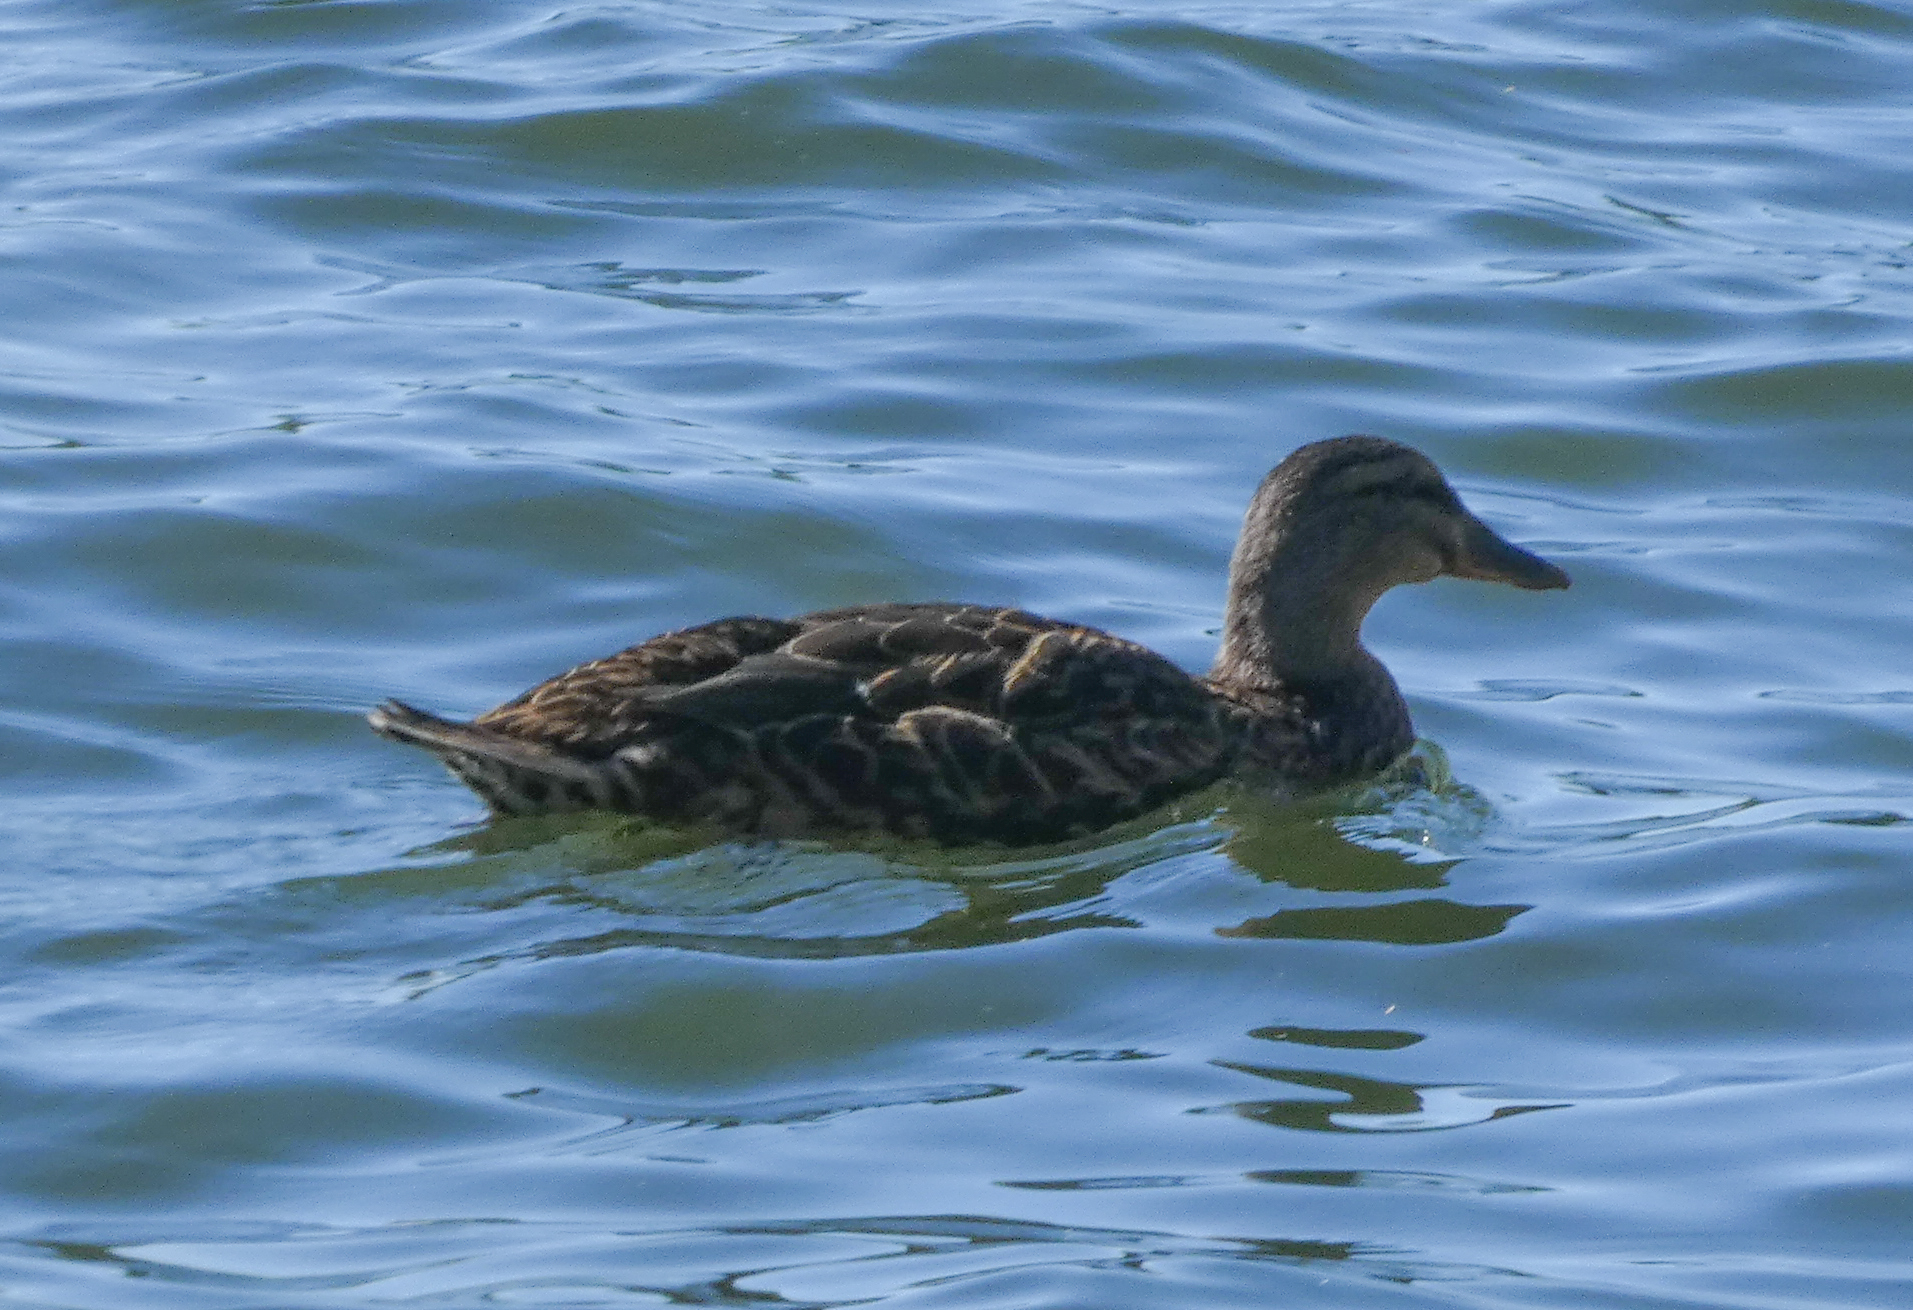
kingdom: Animalia
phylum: Chordata
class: Aves
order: Anseriformes
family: Anatidae
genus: Anas
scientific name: Anas platyrhynchos
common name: Mallard
